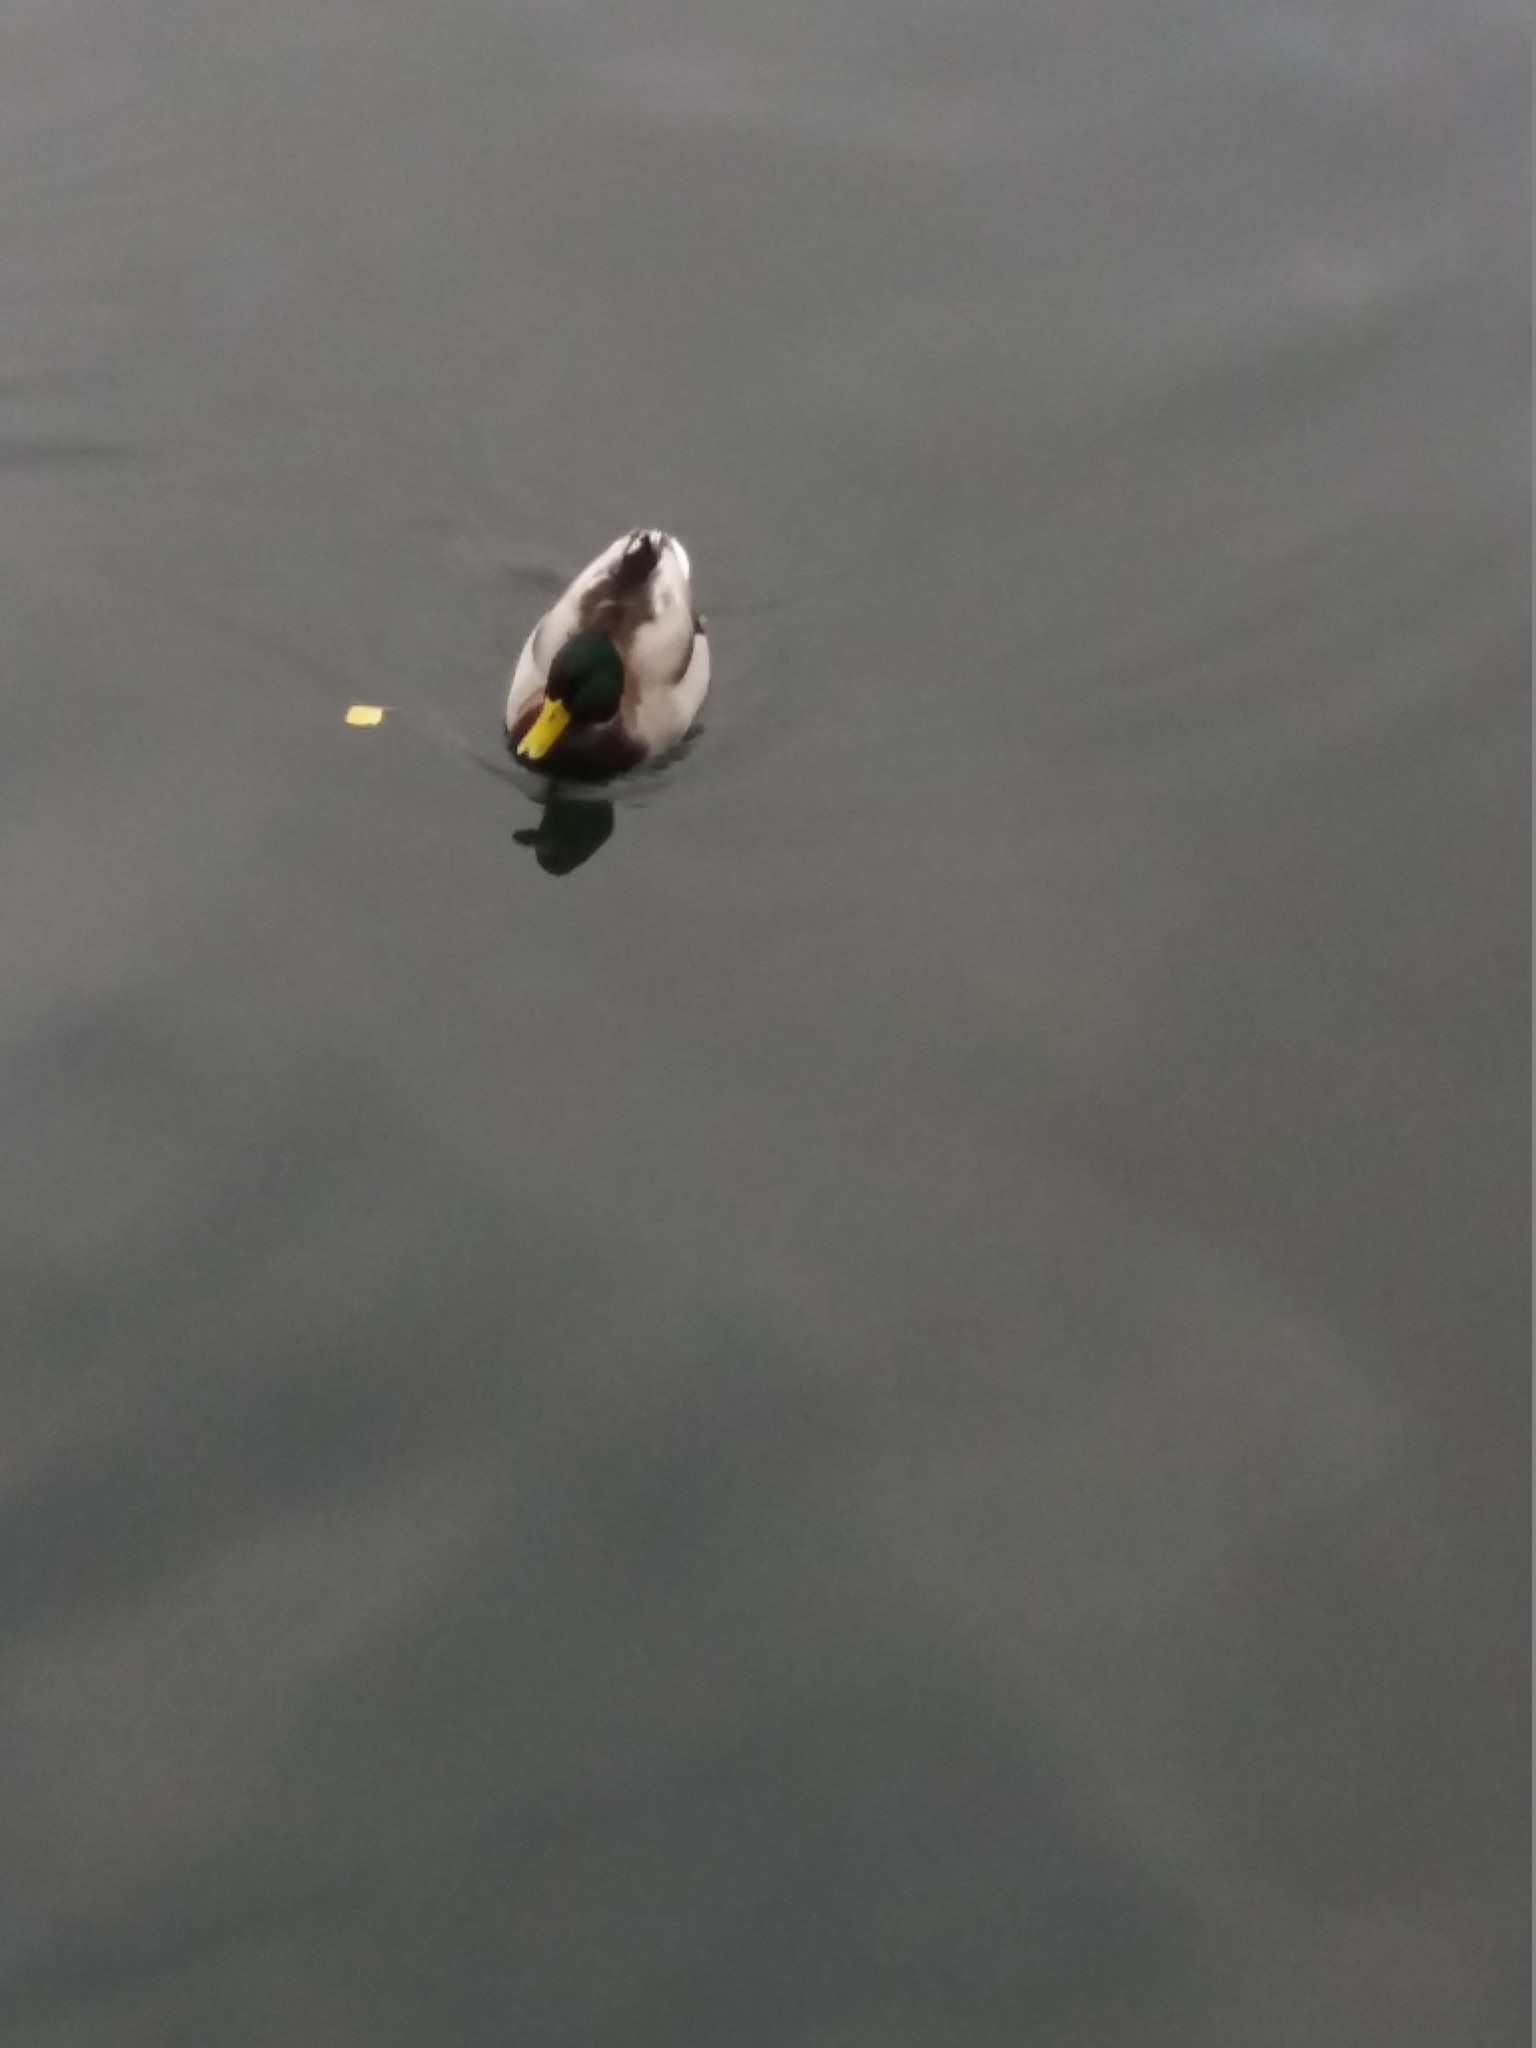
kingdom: Animalia
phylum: Chordata
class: Aves
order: Anseriformes
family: Anatidae
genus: Anas
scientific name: Anas platyrhynchos
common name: Mallard
